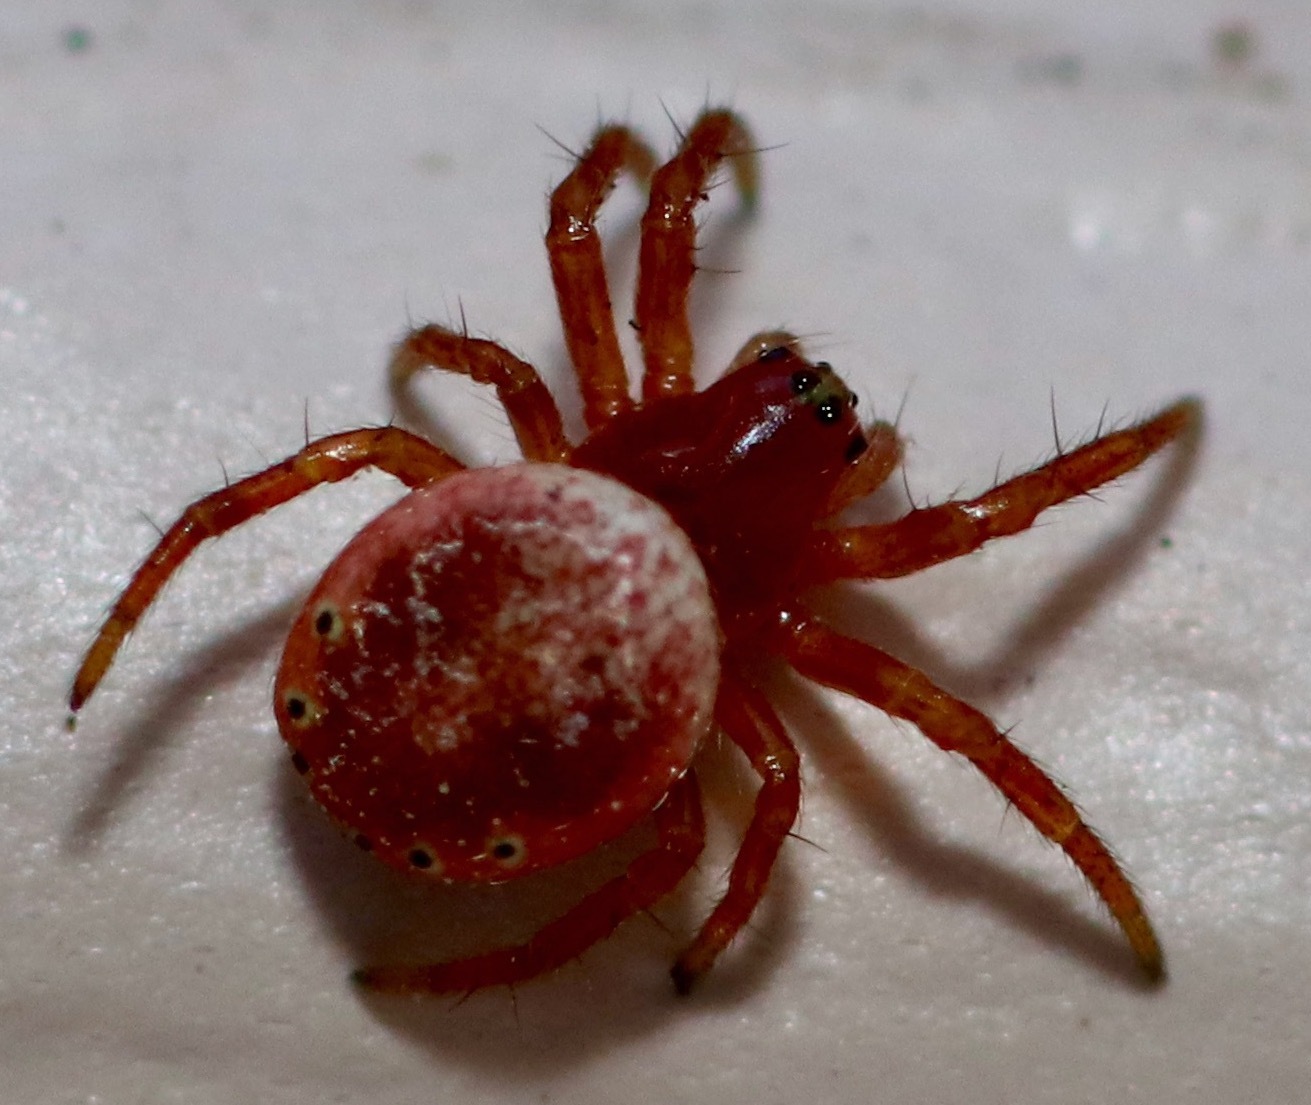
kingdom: Animalia
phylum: Arthropoda
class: Arachnida
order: Araneae
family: Araneidae
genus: Araniella
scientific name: Araniella displicata
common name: Sixspotted orb weaver
